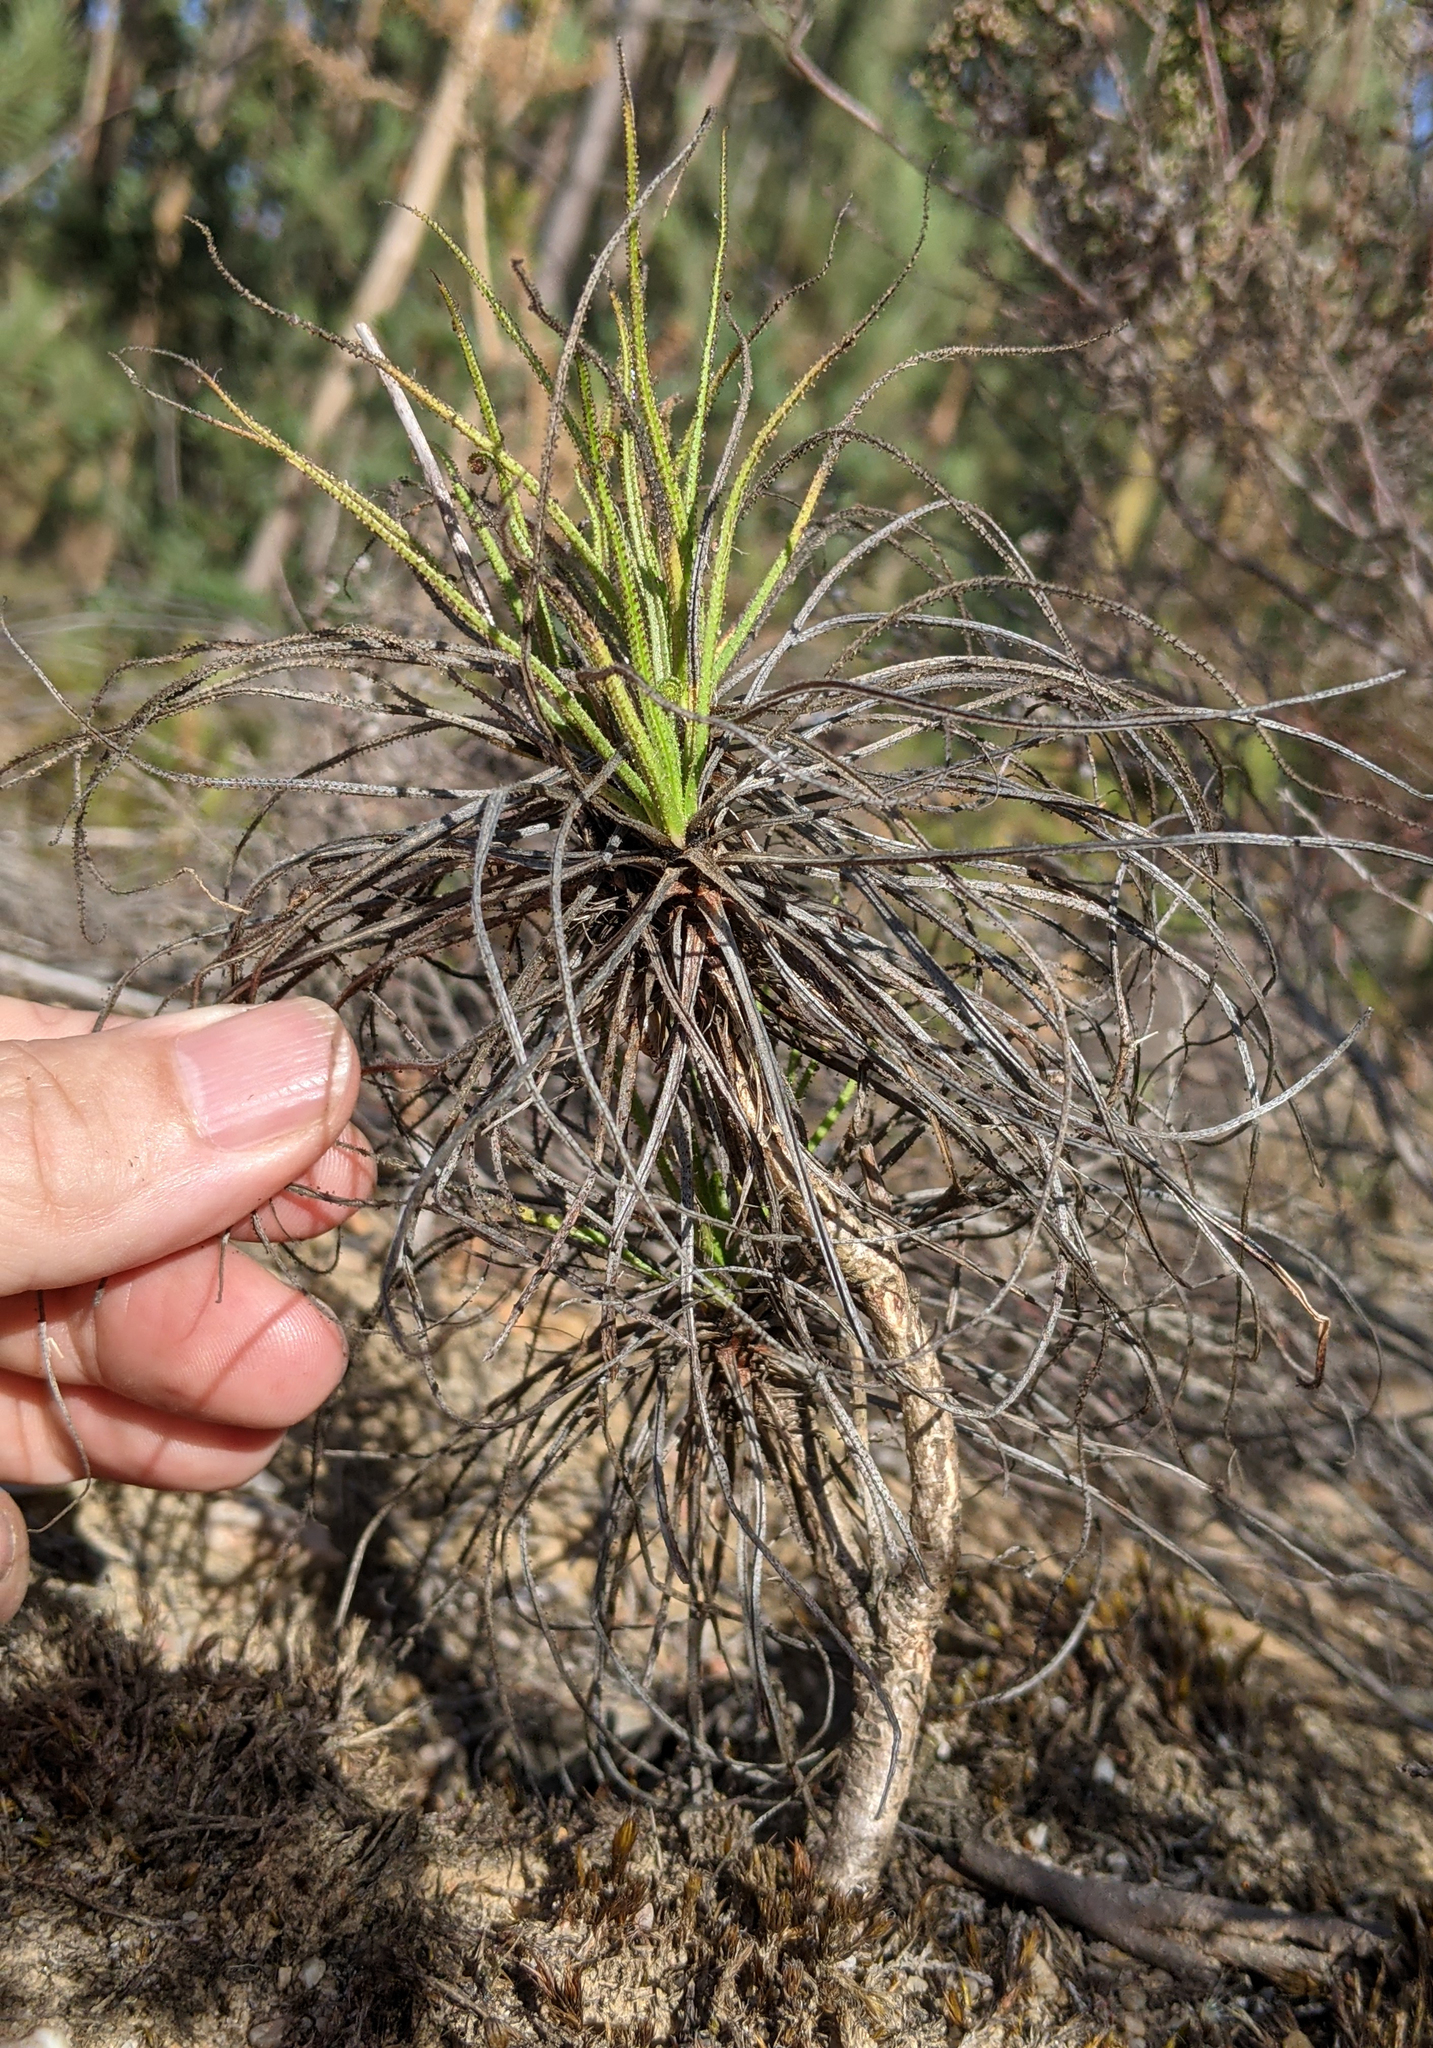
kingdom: Plantae
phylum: Tracheophyta
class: Magnoliopsida
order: Caryophyllales
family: Drosophyllaceae
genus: Drosophyllum
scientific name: Drosophyllum lusitanicum
